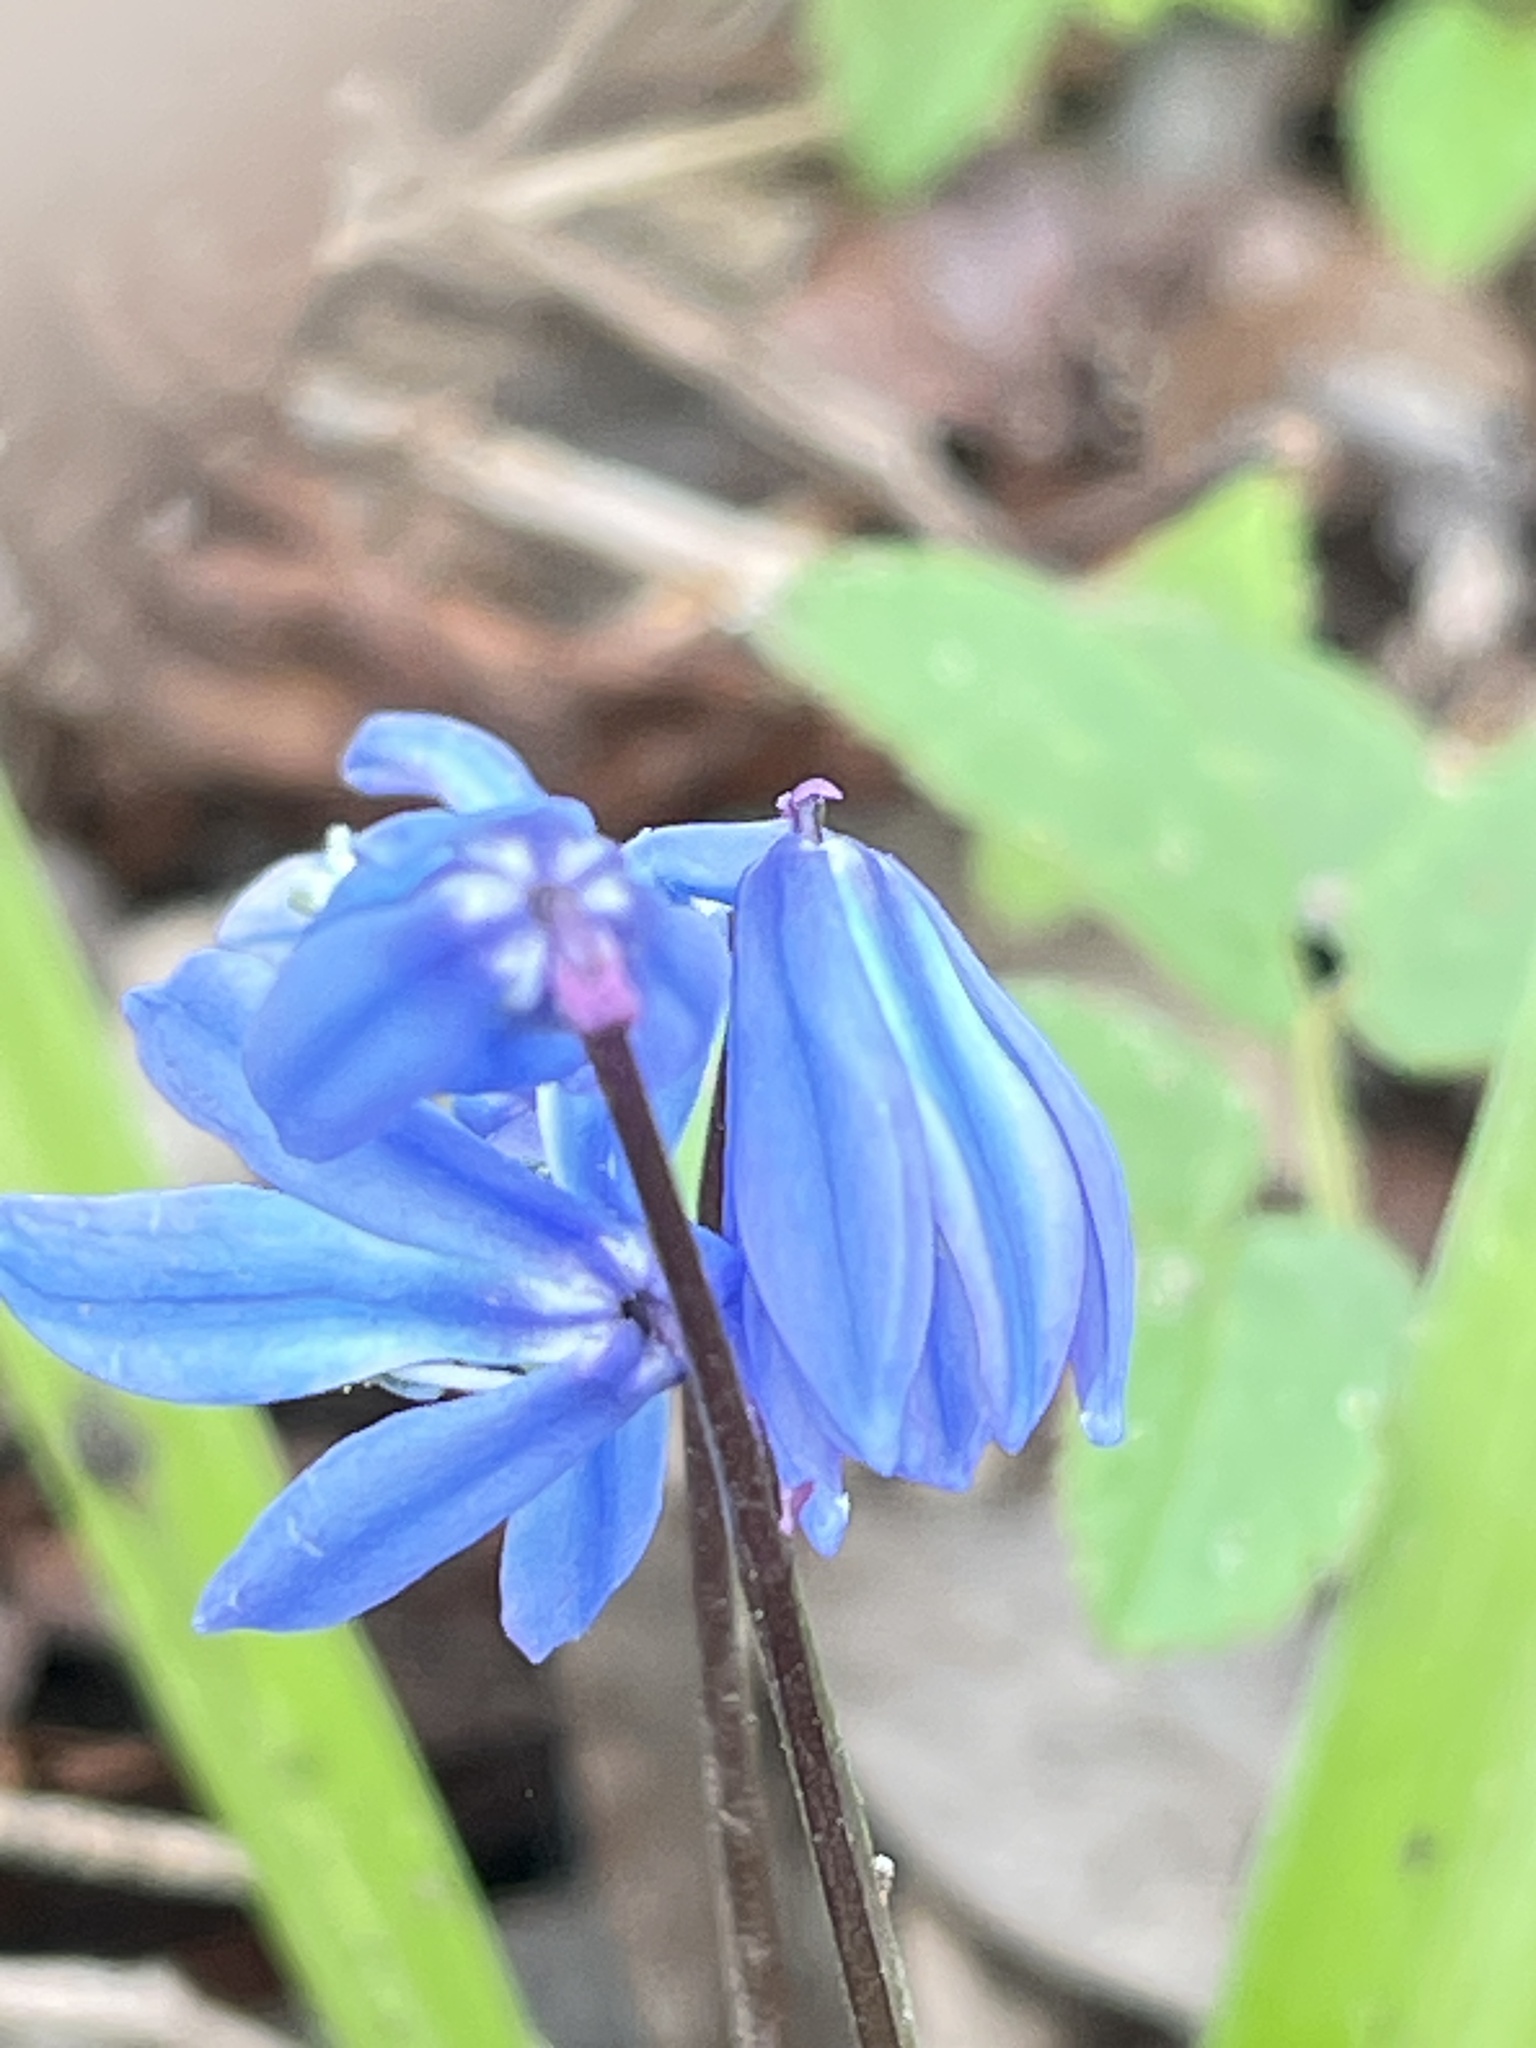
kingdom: Plantae
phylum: Tracheophyta
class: Liliopsida
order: Asparagales
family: Asparagaceae
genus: Scilla
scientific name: Scilla siberica
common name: Siberian squill
